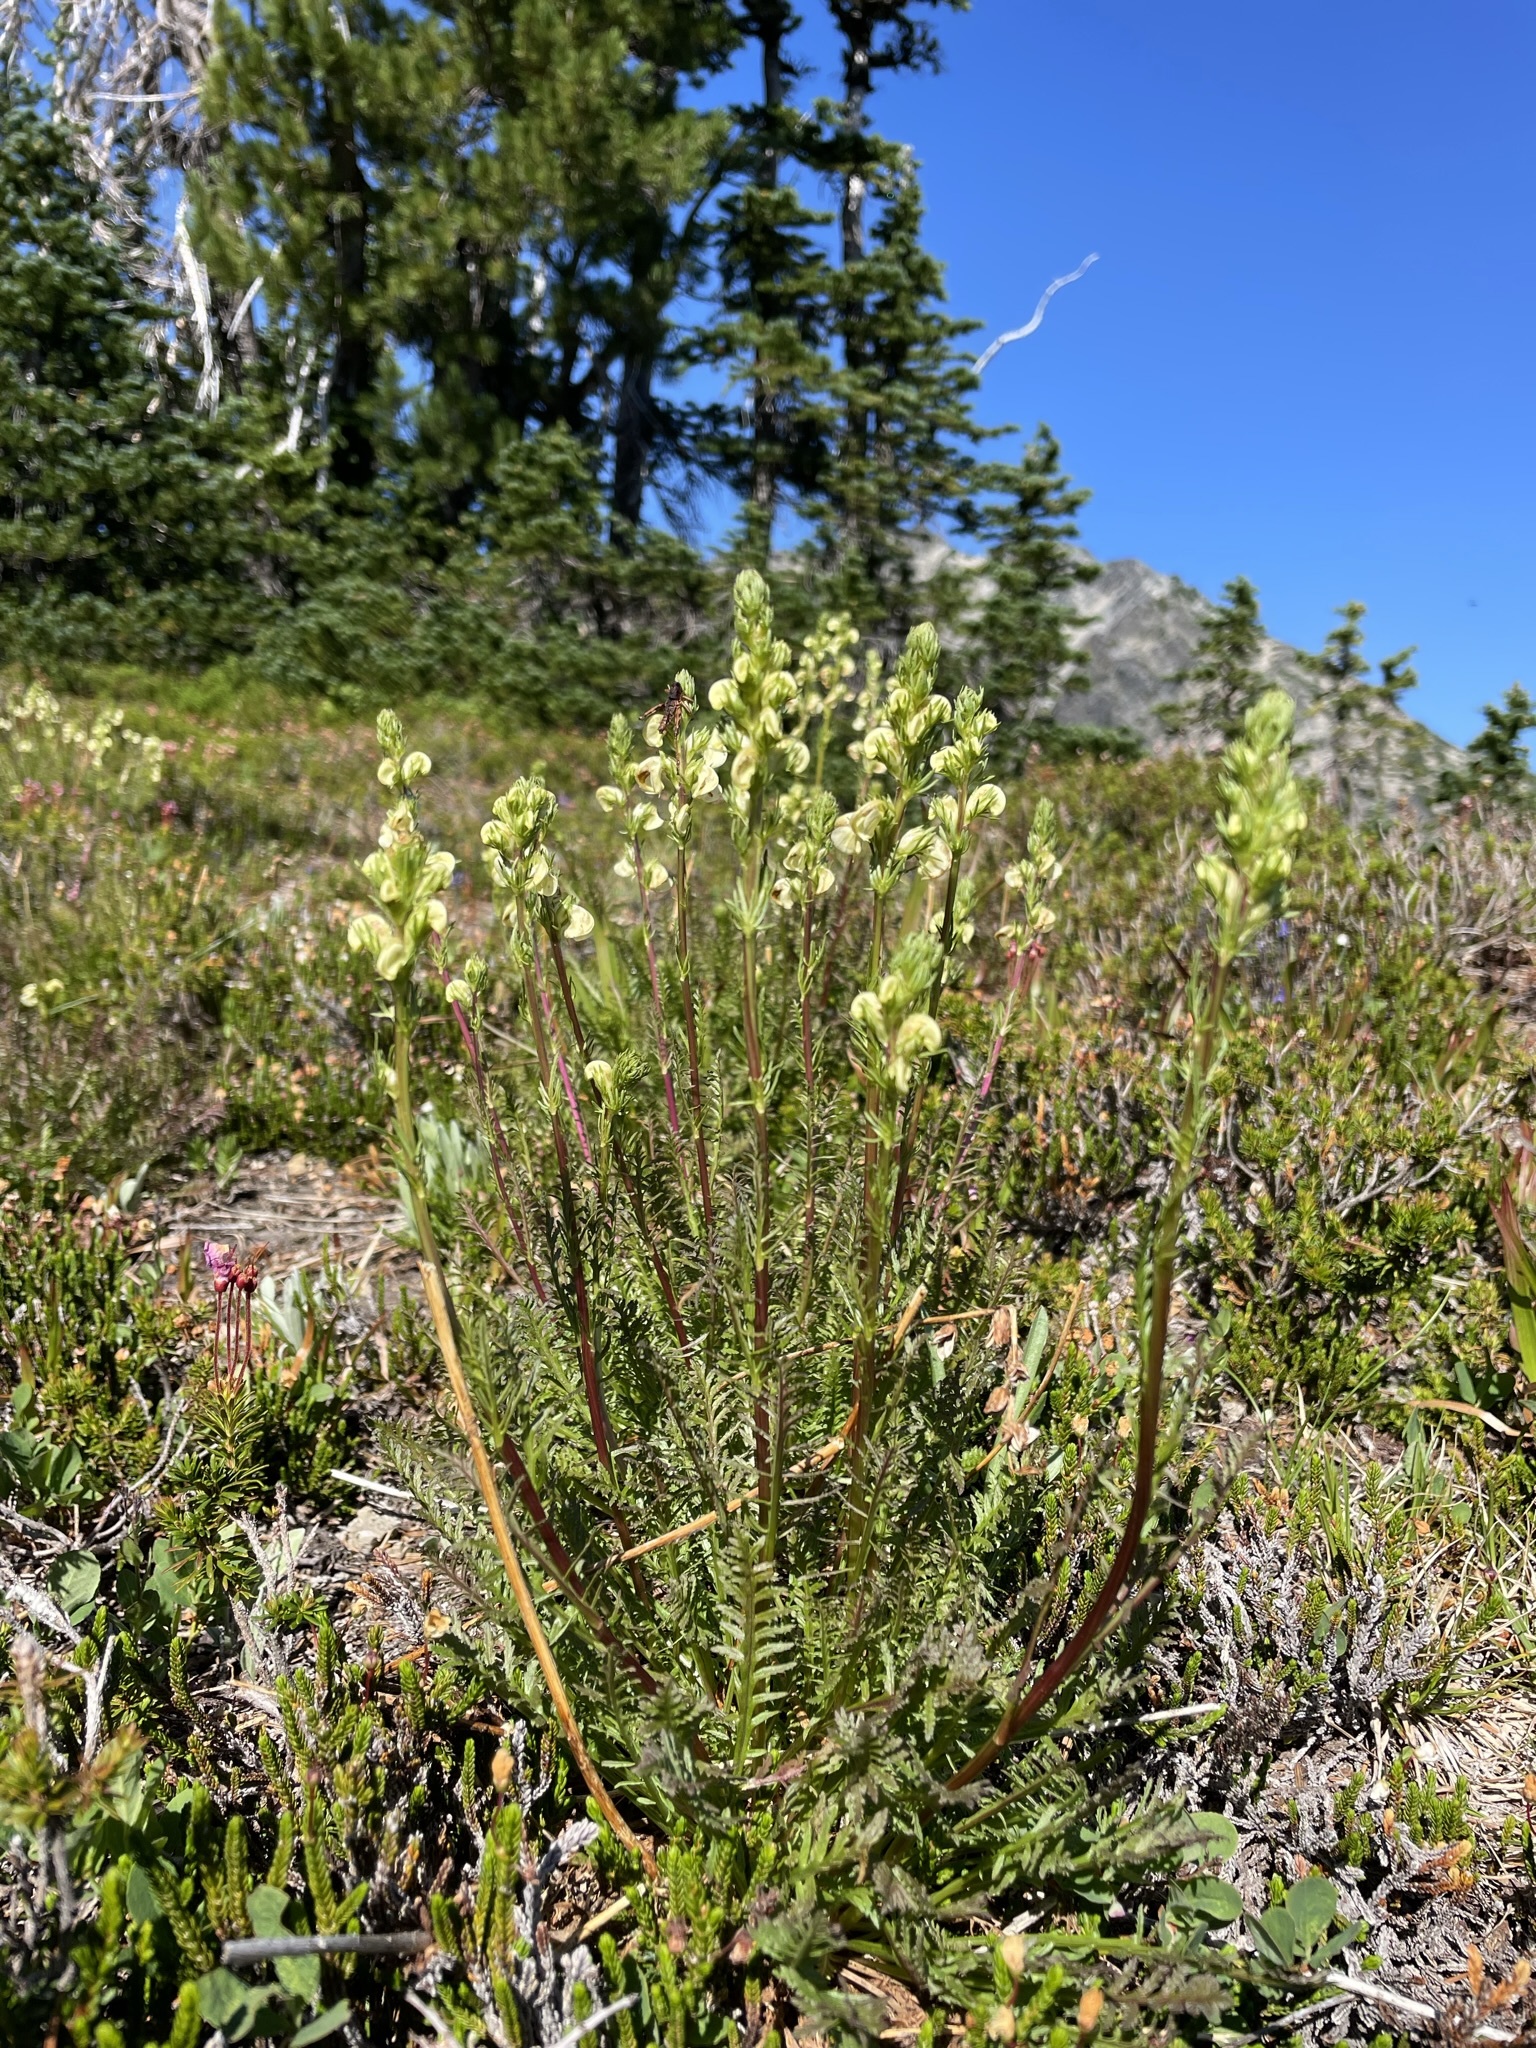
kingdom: Plantae
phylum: Tracheophyta
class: Magnoliopsida
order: Lamiales
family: Orobanchaceae
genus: Pedicularis
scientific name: Pedicularis contorta
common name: Coiled lousewort
